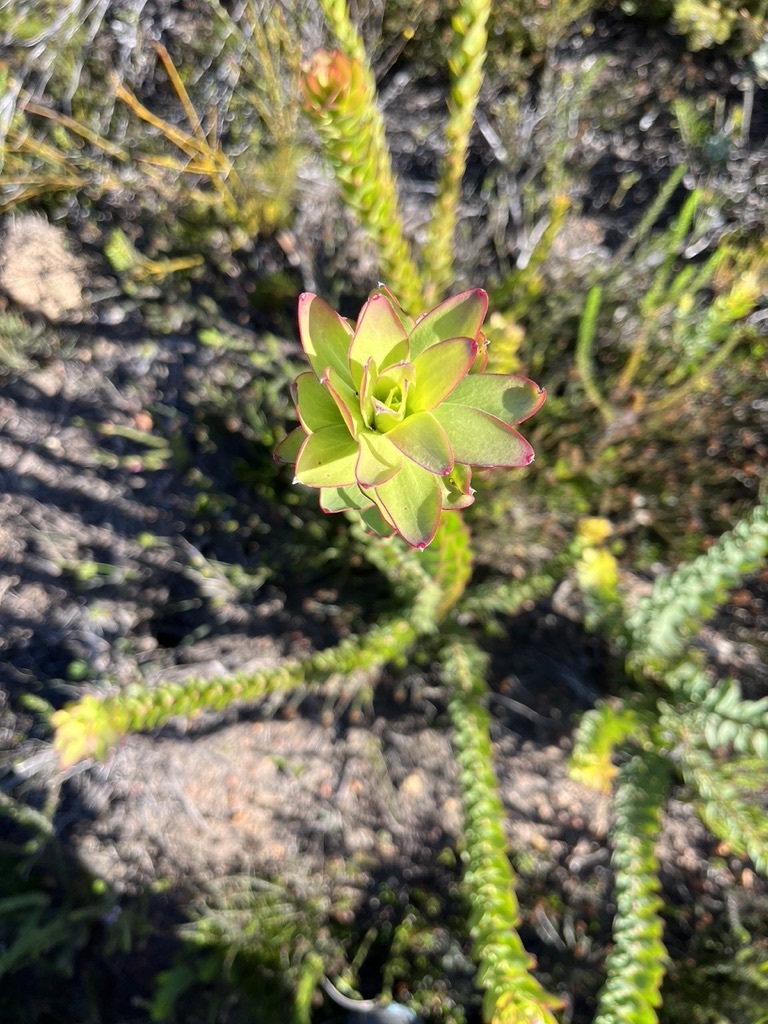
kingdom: Plantae
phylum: Tracheophyta
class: Magnoliopsida
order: Proteales
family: Proteaceae
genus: Leucadendron
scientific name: Leucadendron elimense
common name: Elim conebush
